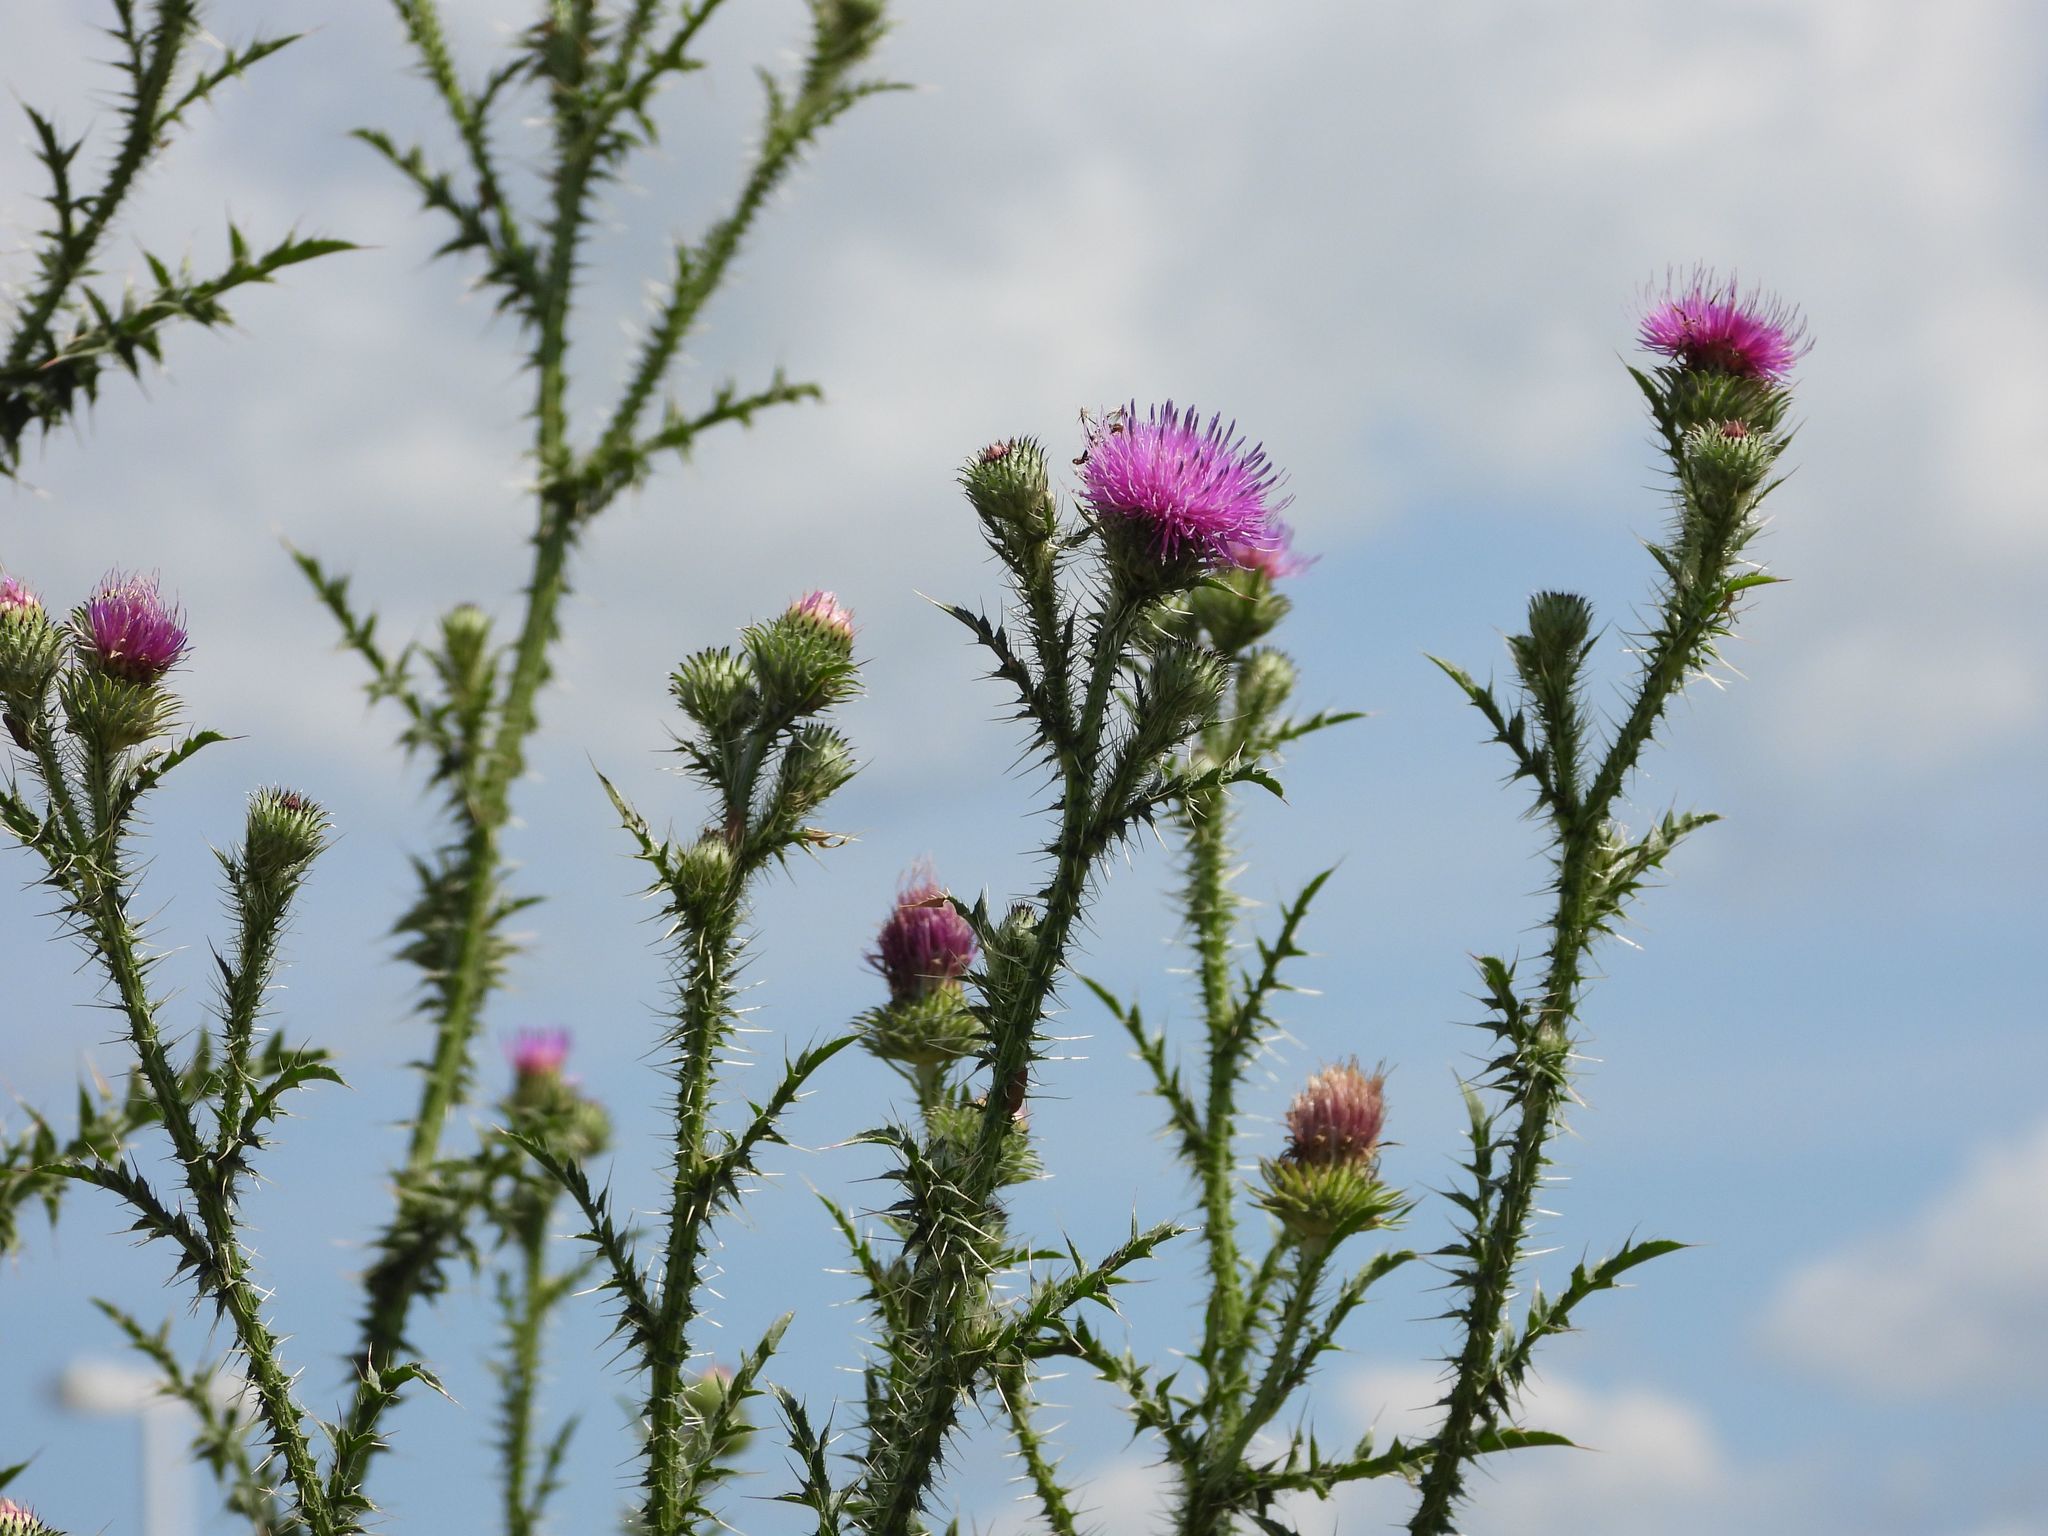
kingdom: Plantae
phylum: Tracheophyta
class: Magnoliopsida
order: Asterales
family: Asteraceae
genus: Carduus
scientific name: Carduus acanthoides
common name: Plumeless thistle
